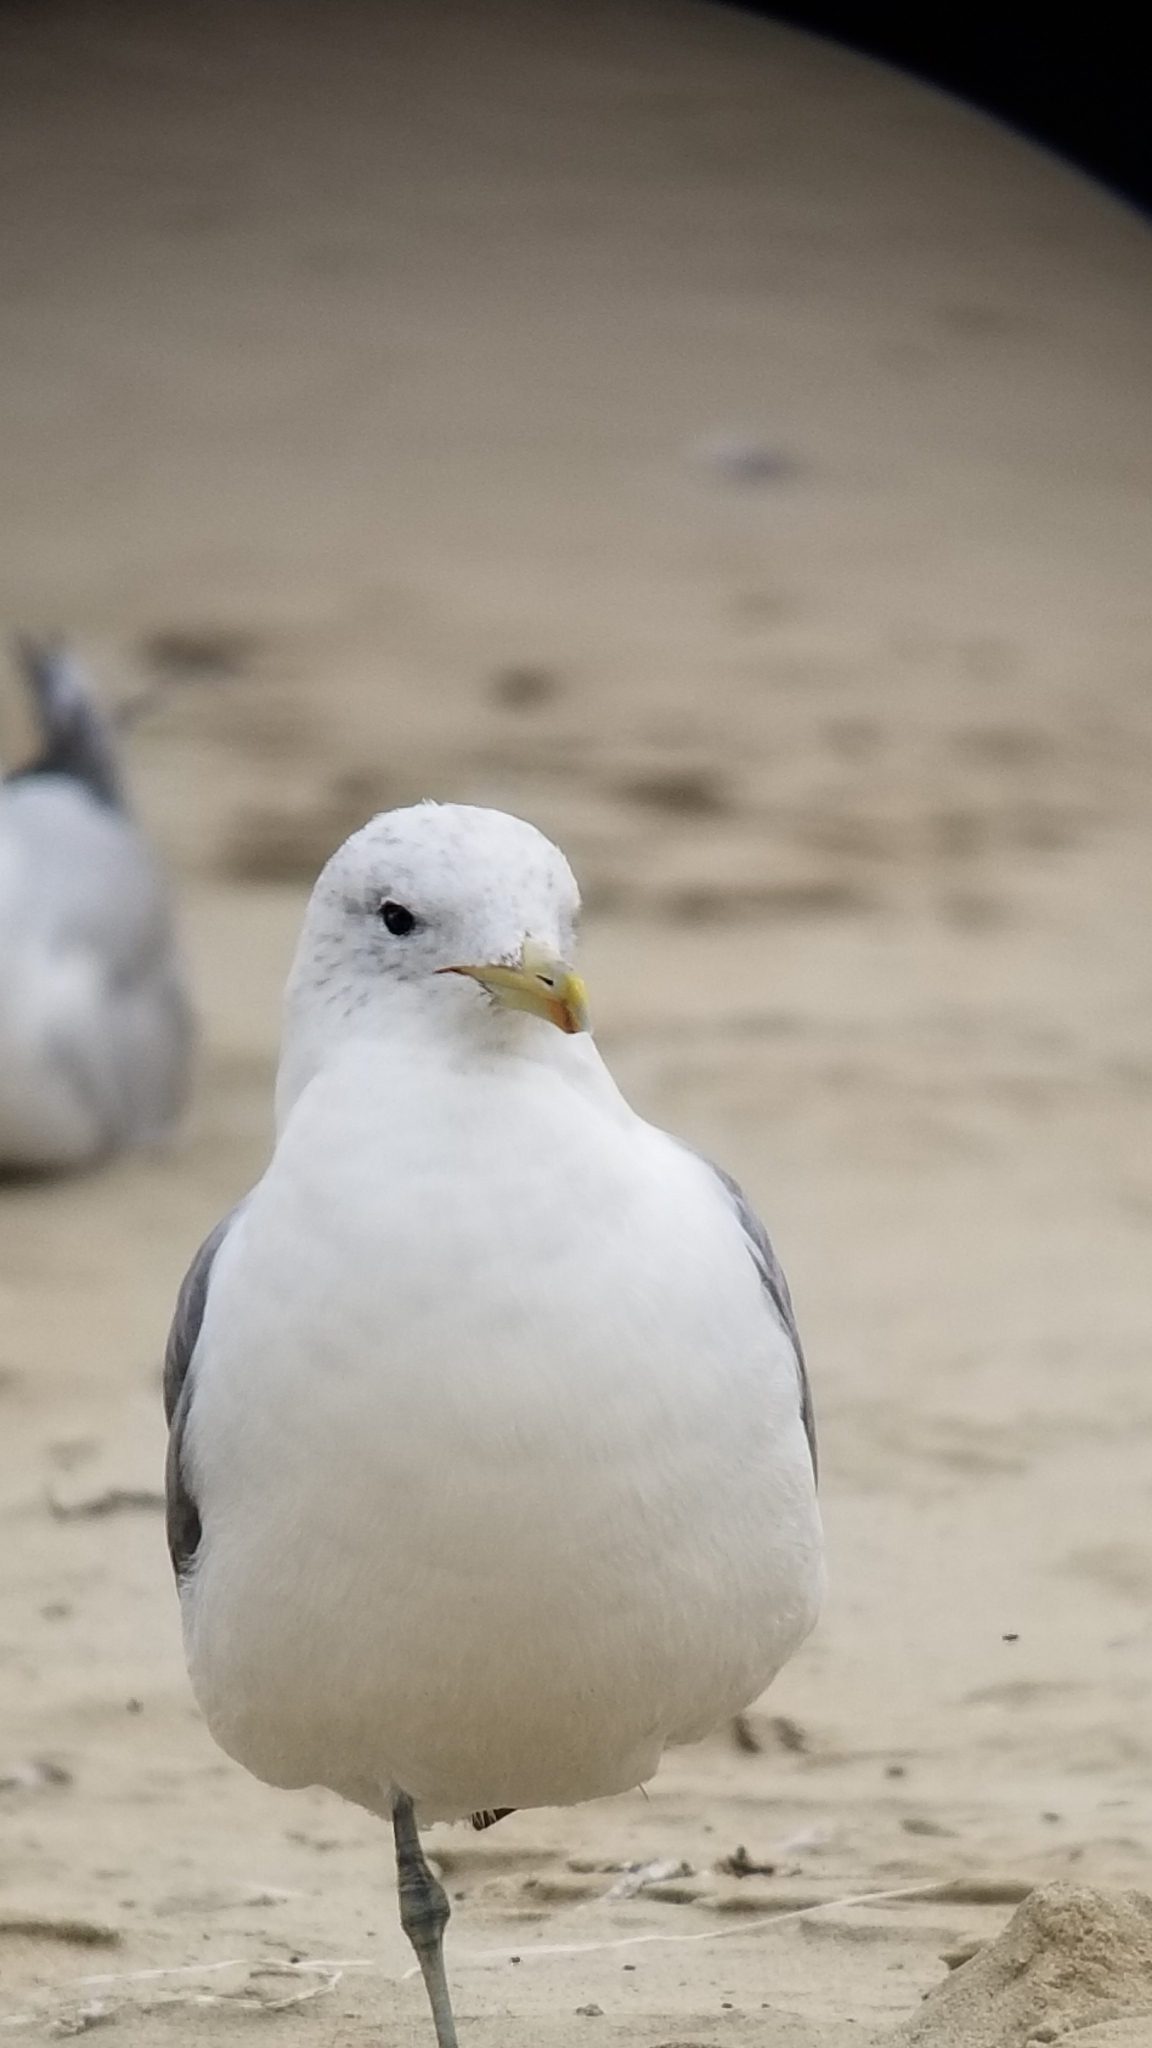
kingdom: Animalia
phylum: Chordata
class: Aves
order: Charadriiformes
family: Laridae
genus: Larus
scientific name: Larus californicus
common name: California gull
